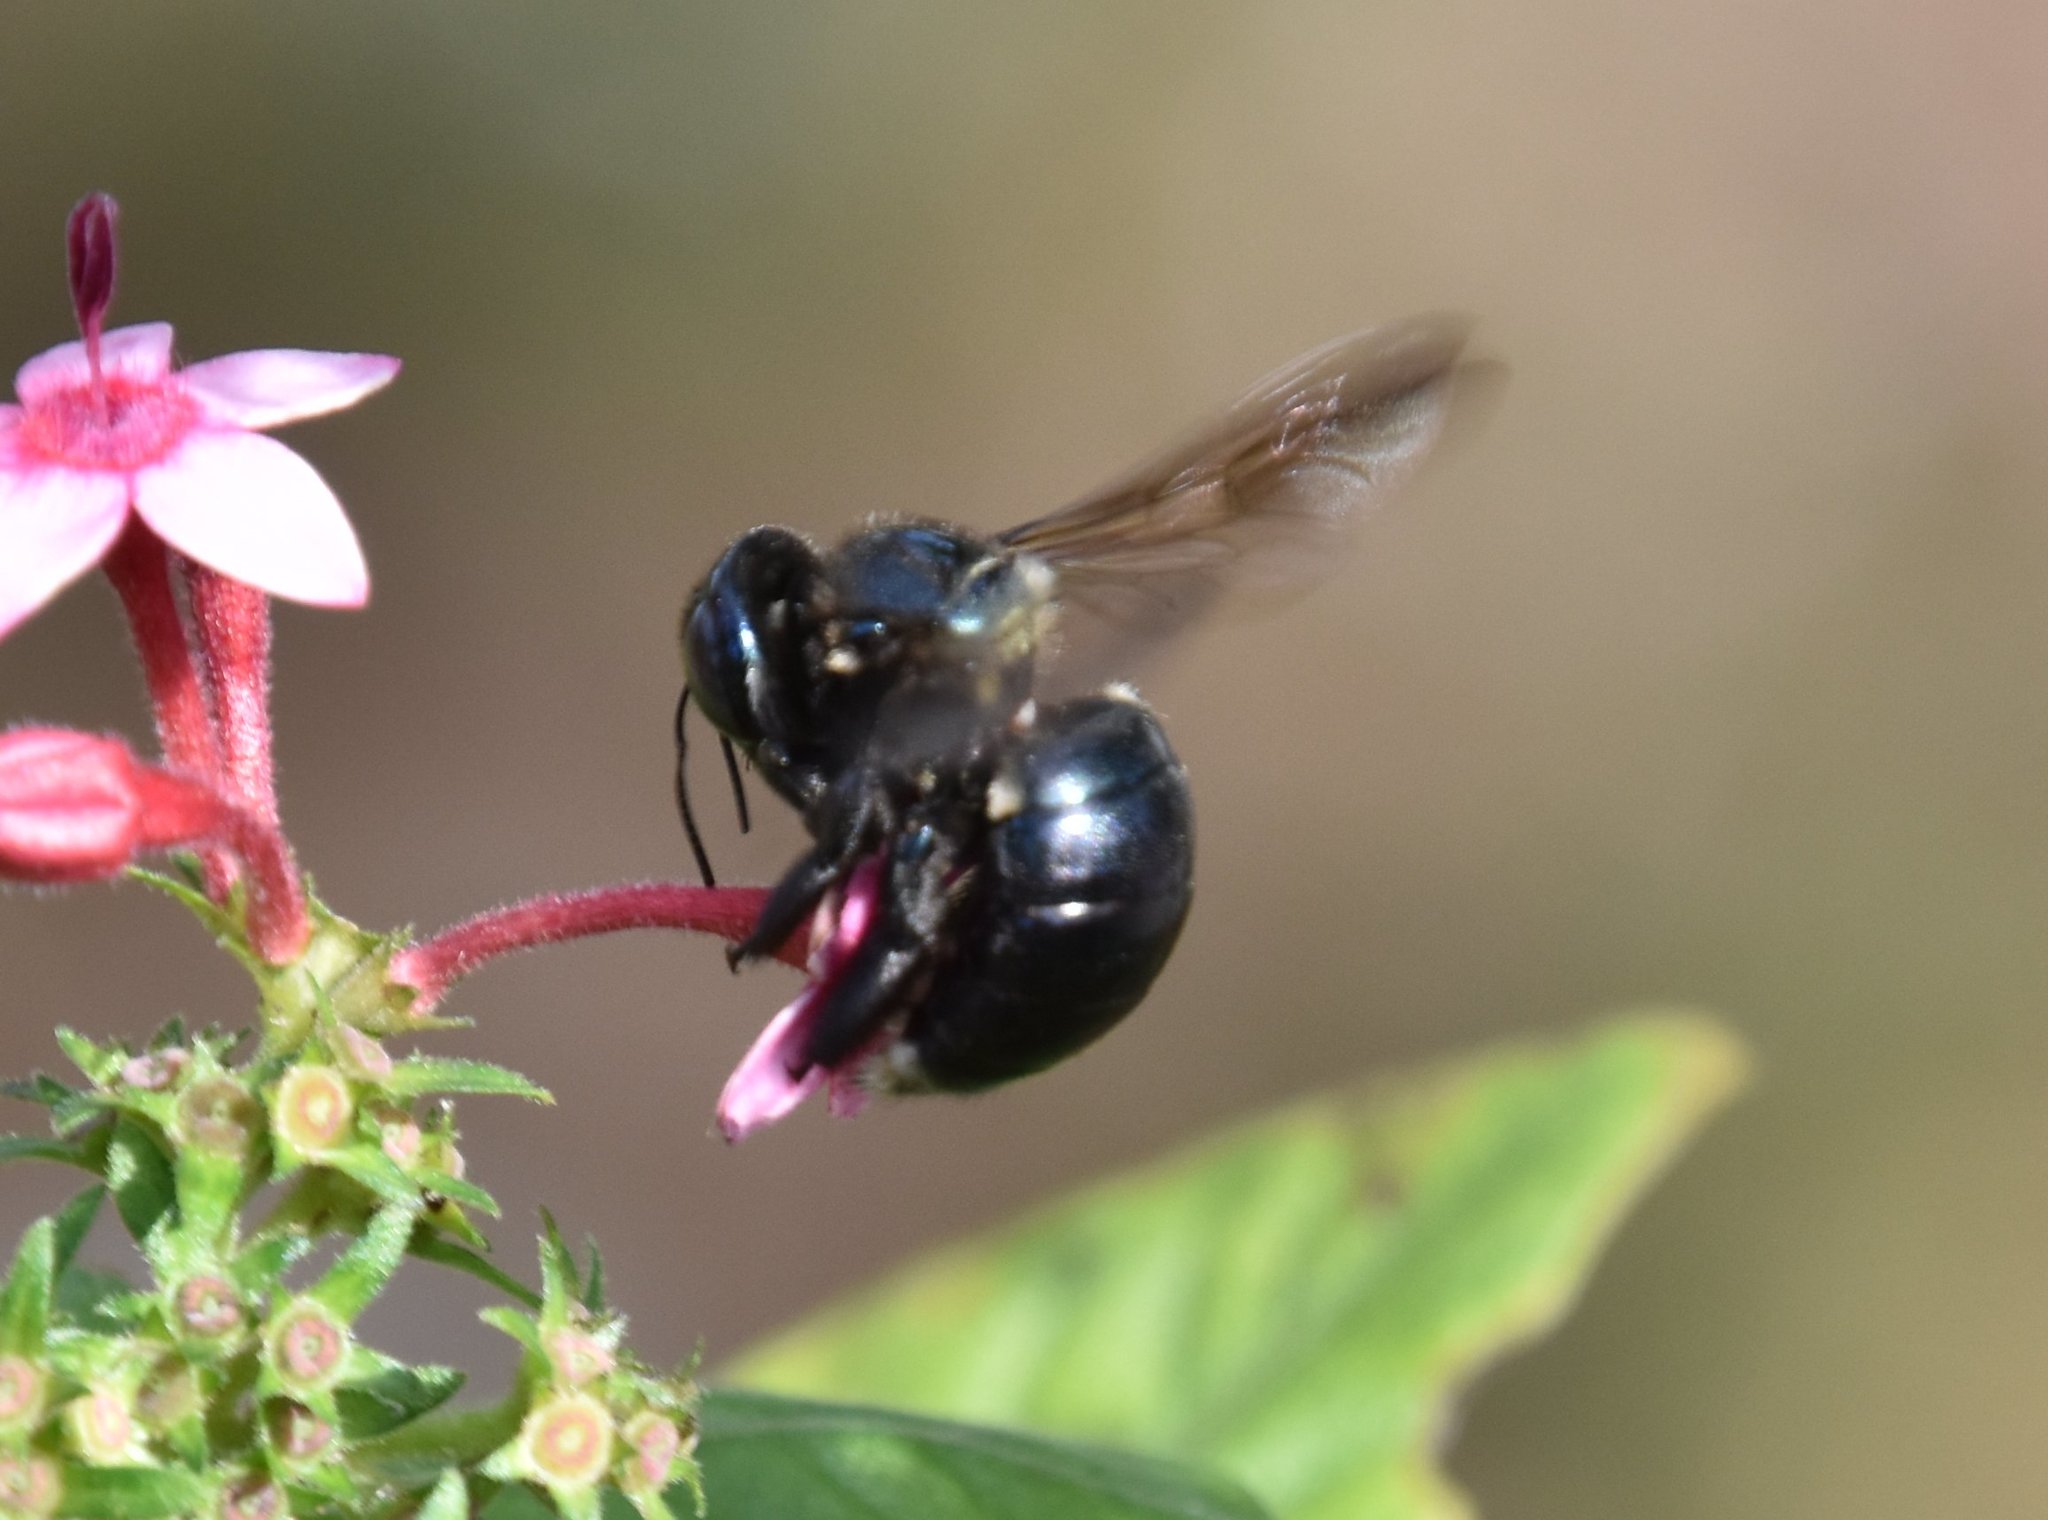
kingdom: Animalia
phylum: Arthropoda
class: Insecta
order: Hymenoptera
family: Apidae
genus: Xylocopa
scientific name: Xylocopa micans
